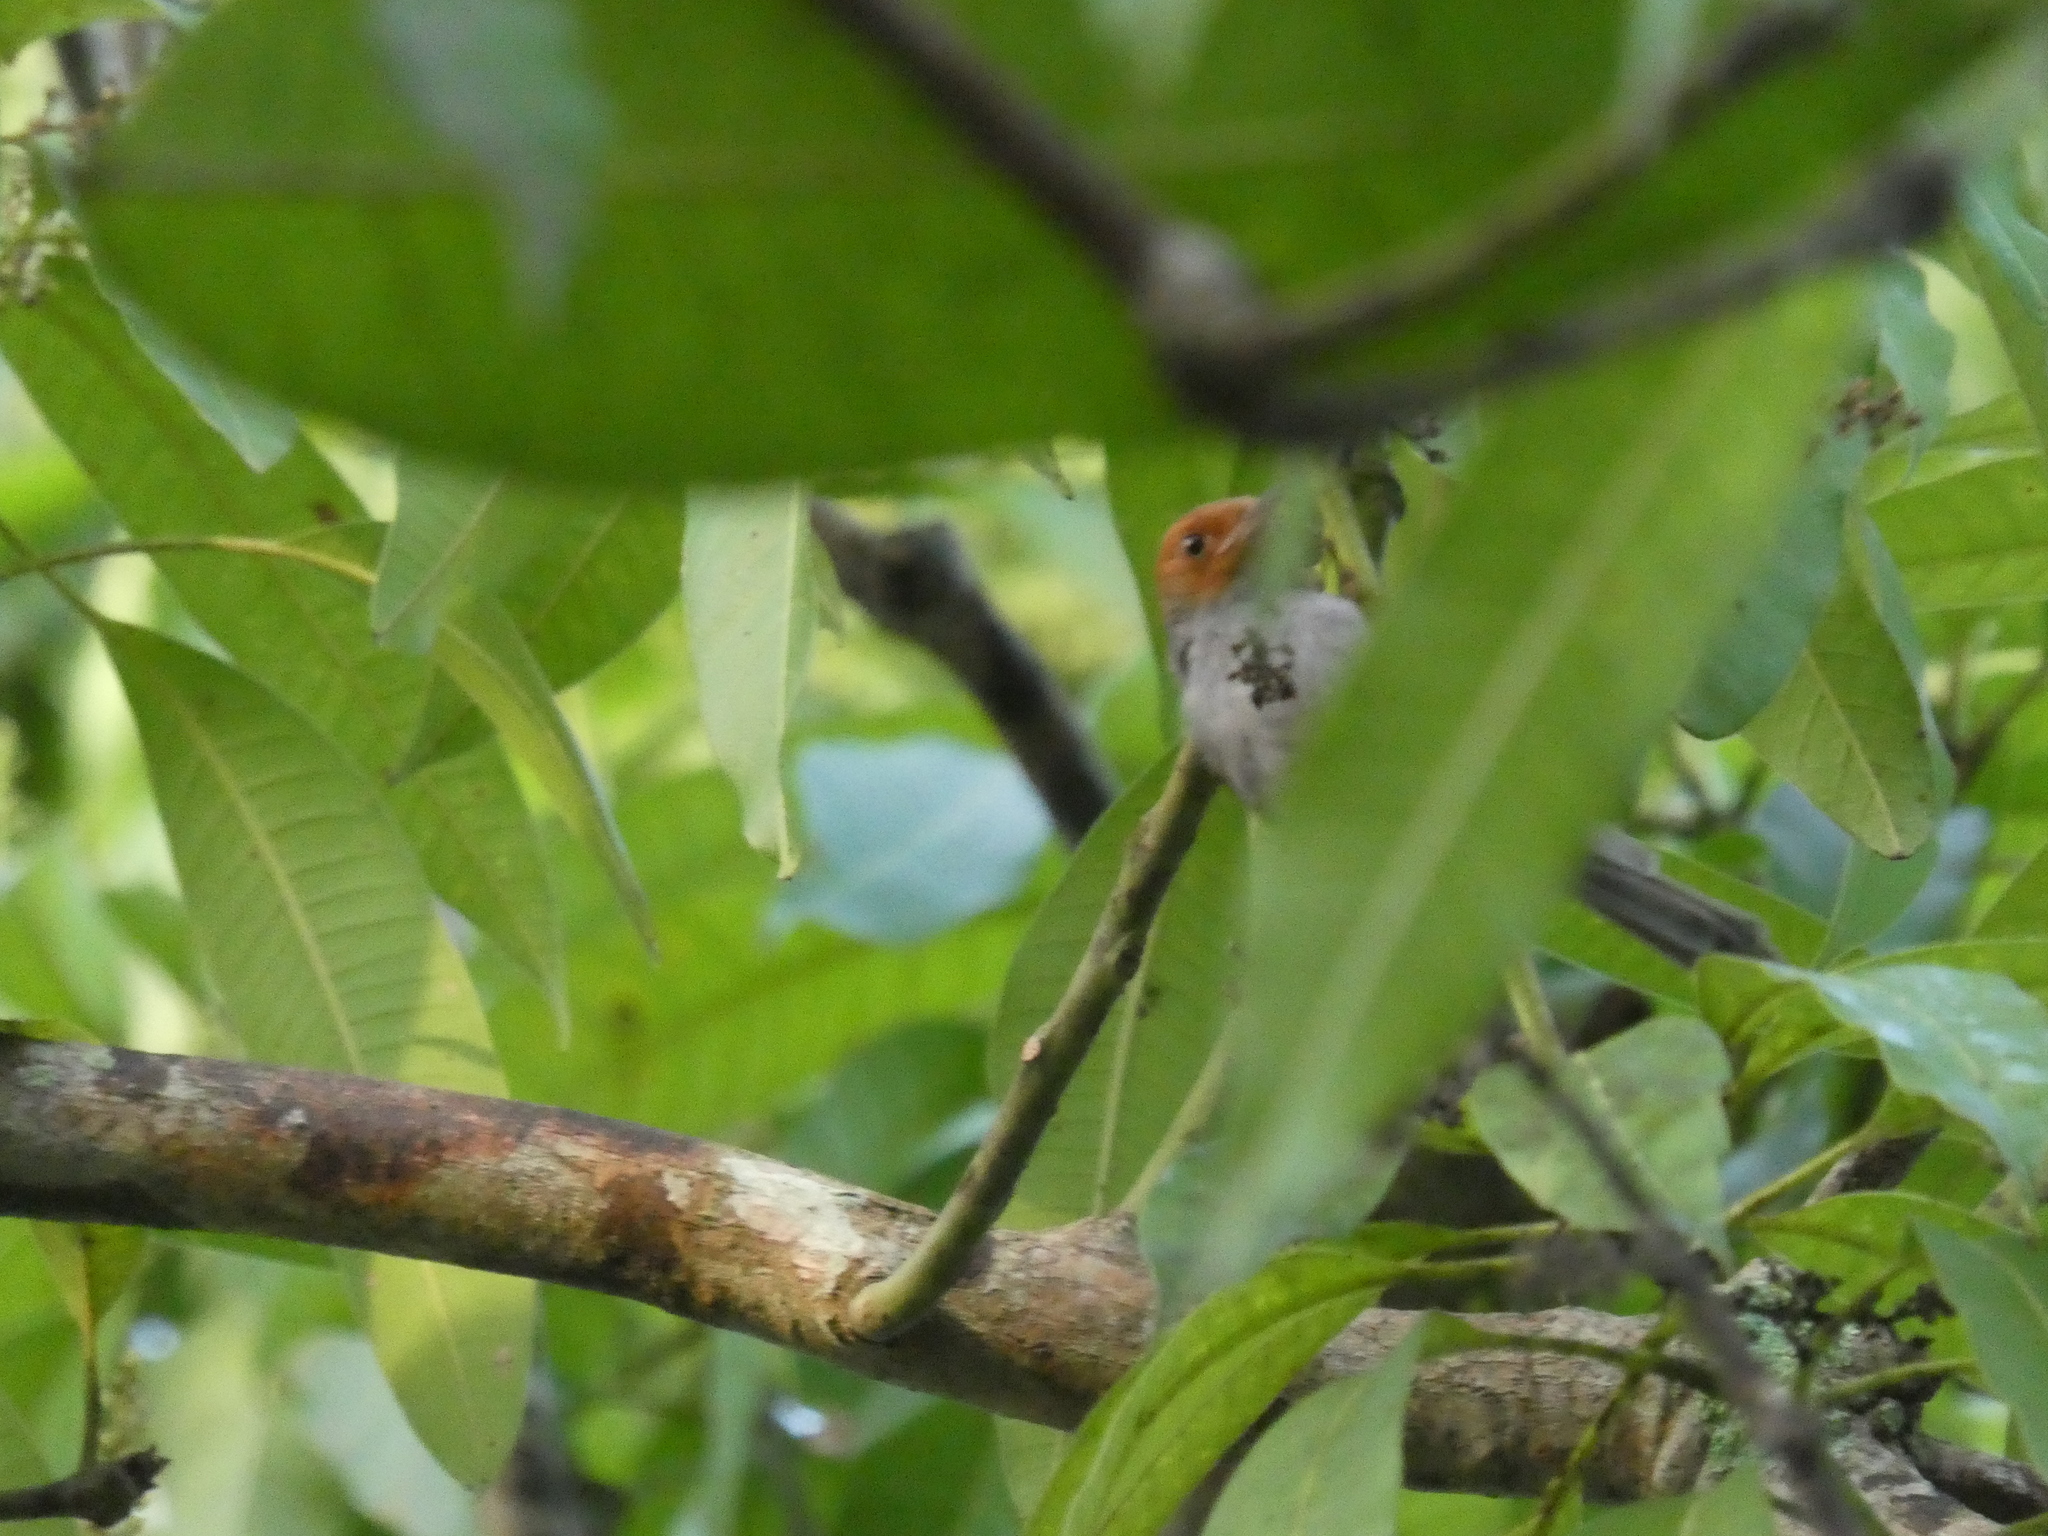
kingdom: Animalia
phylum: Chordata
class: Aves
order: Passeriformes
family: Cisticolidae
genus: Orthotomus
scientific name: Orthotomus ruficeps
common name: Ashy tailorbird
